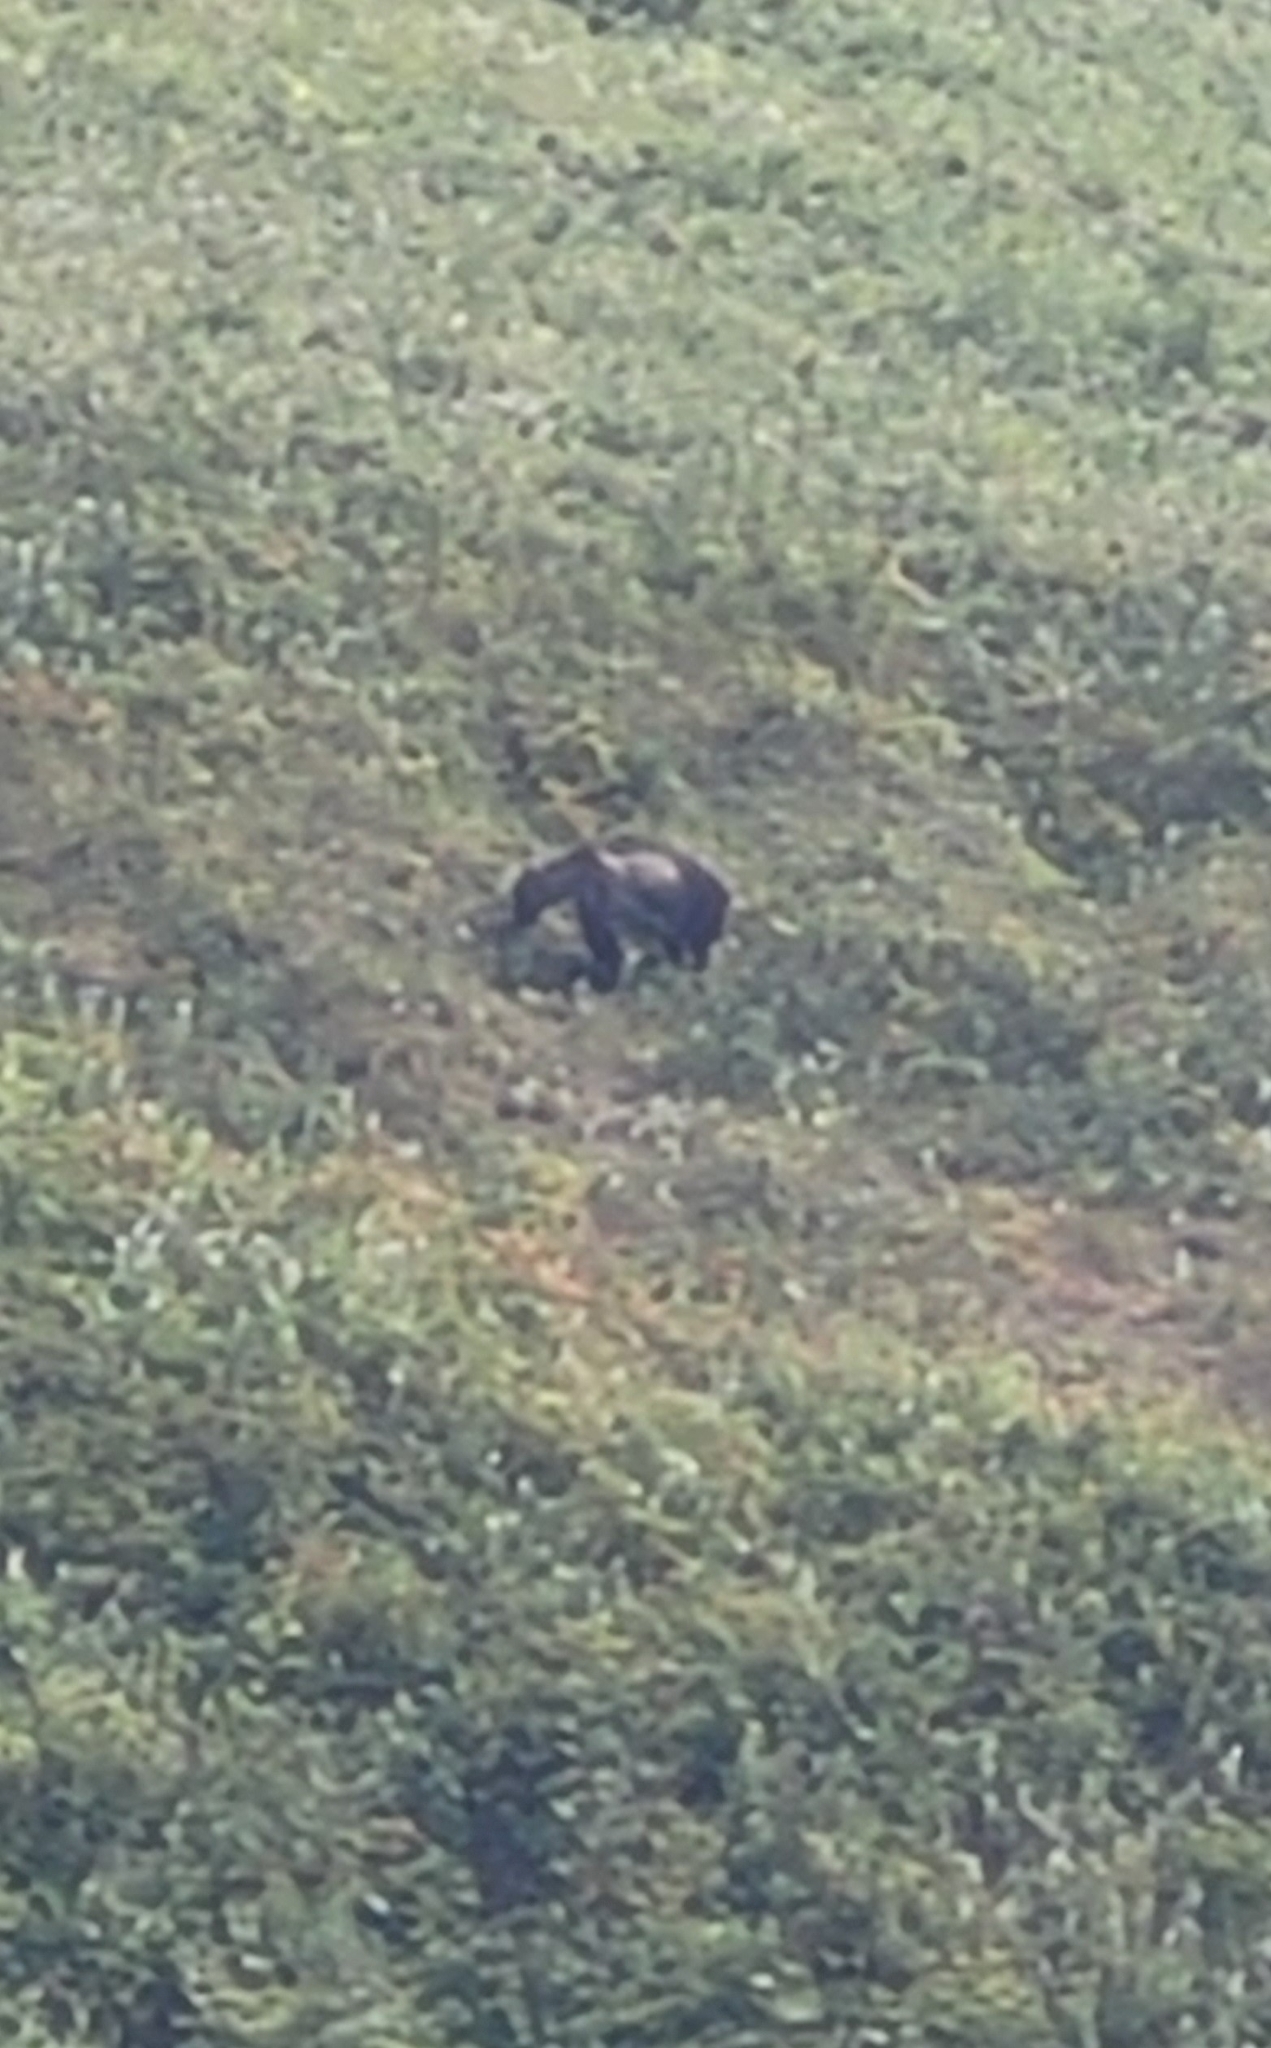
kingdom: Animalia
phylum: Chordata
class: Mammalia
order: Carnivora
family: Ursidae
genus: Ursus
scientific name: Ursus arctos
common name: Brown bear
